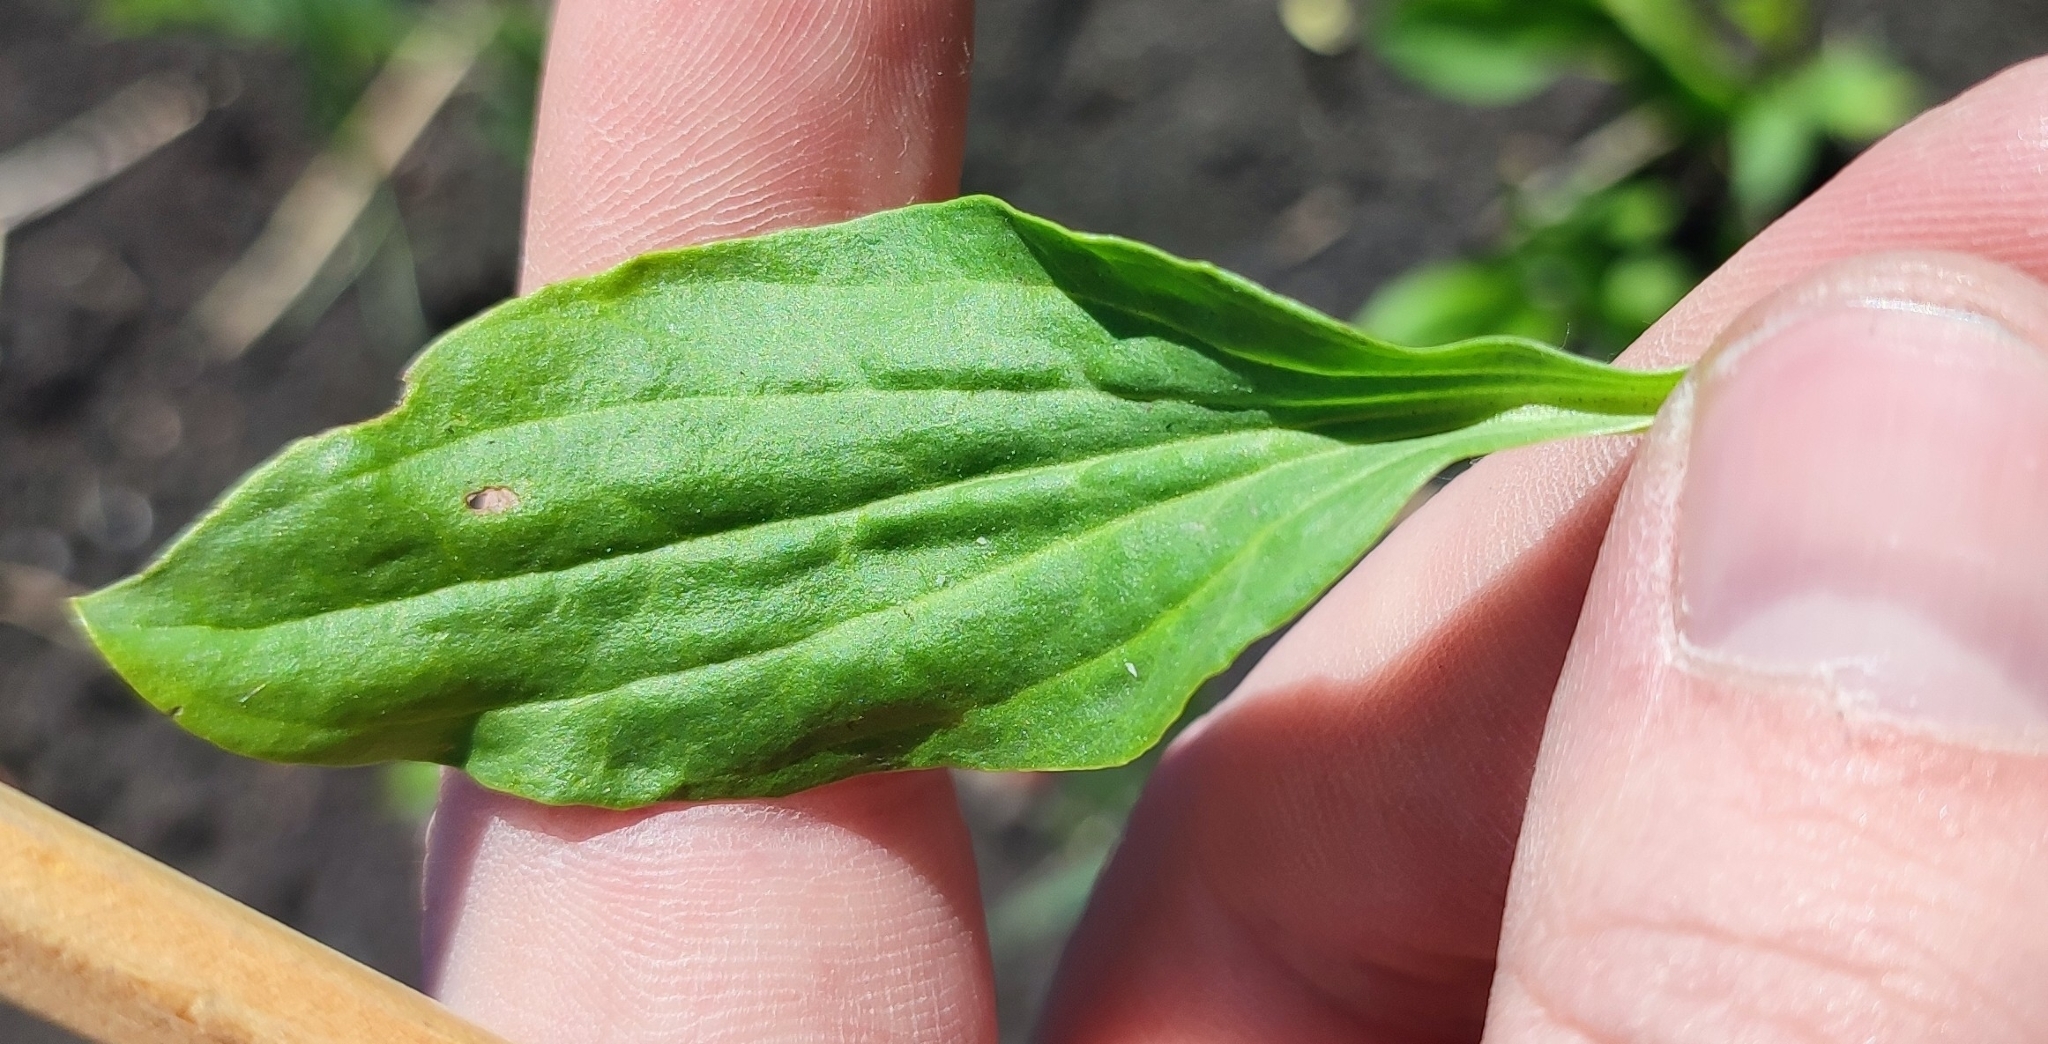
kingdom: Plantae
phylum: Tracheophyta
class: Magnoliopsida
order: Lamiales
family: Plantaginaceae
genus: Plantago
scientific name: Plantago major
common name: Common plantain
